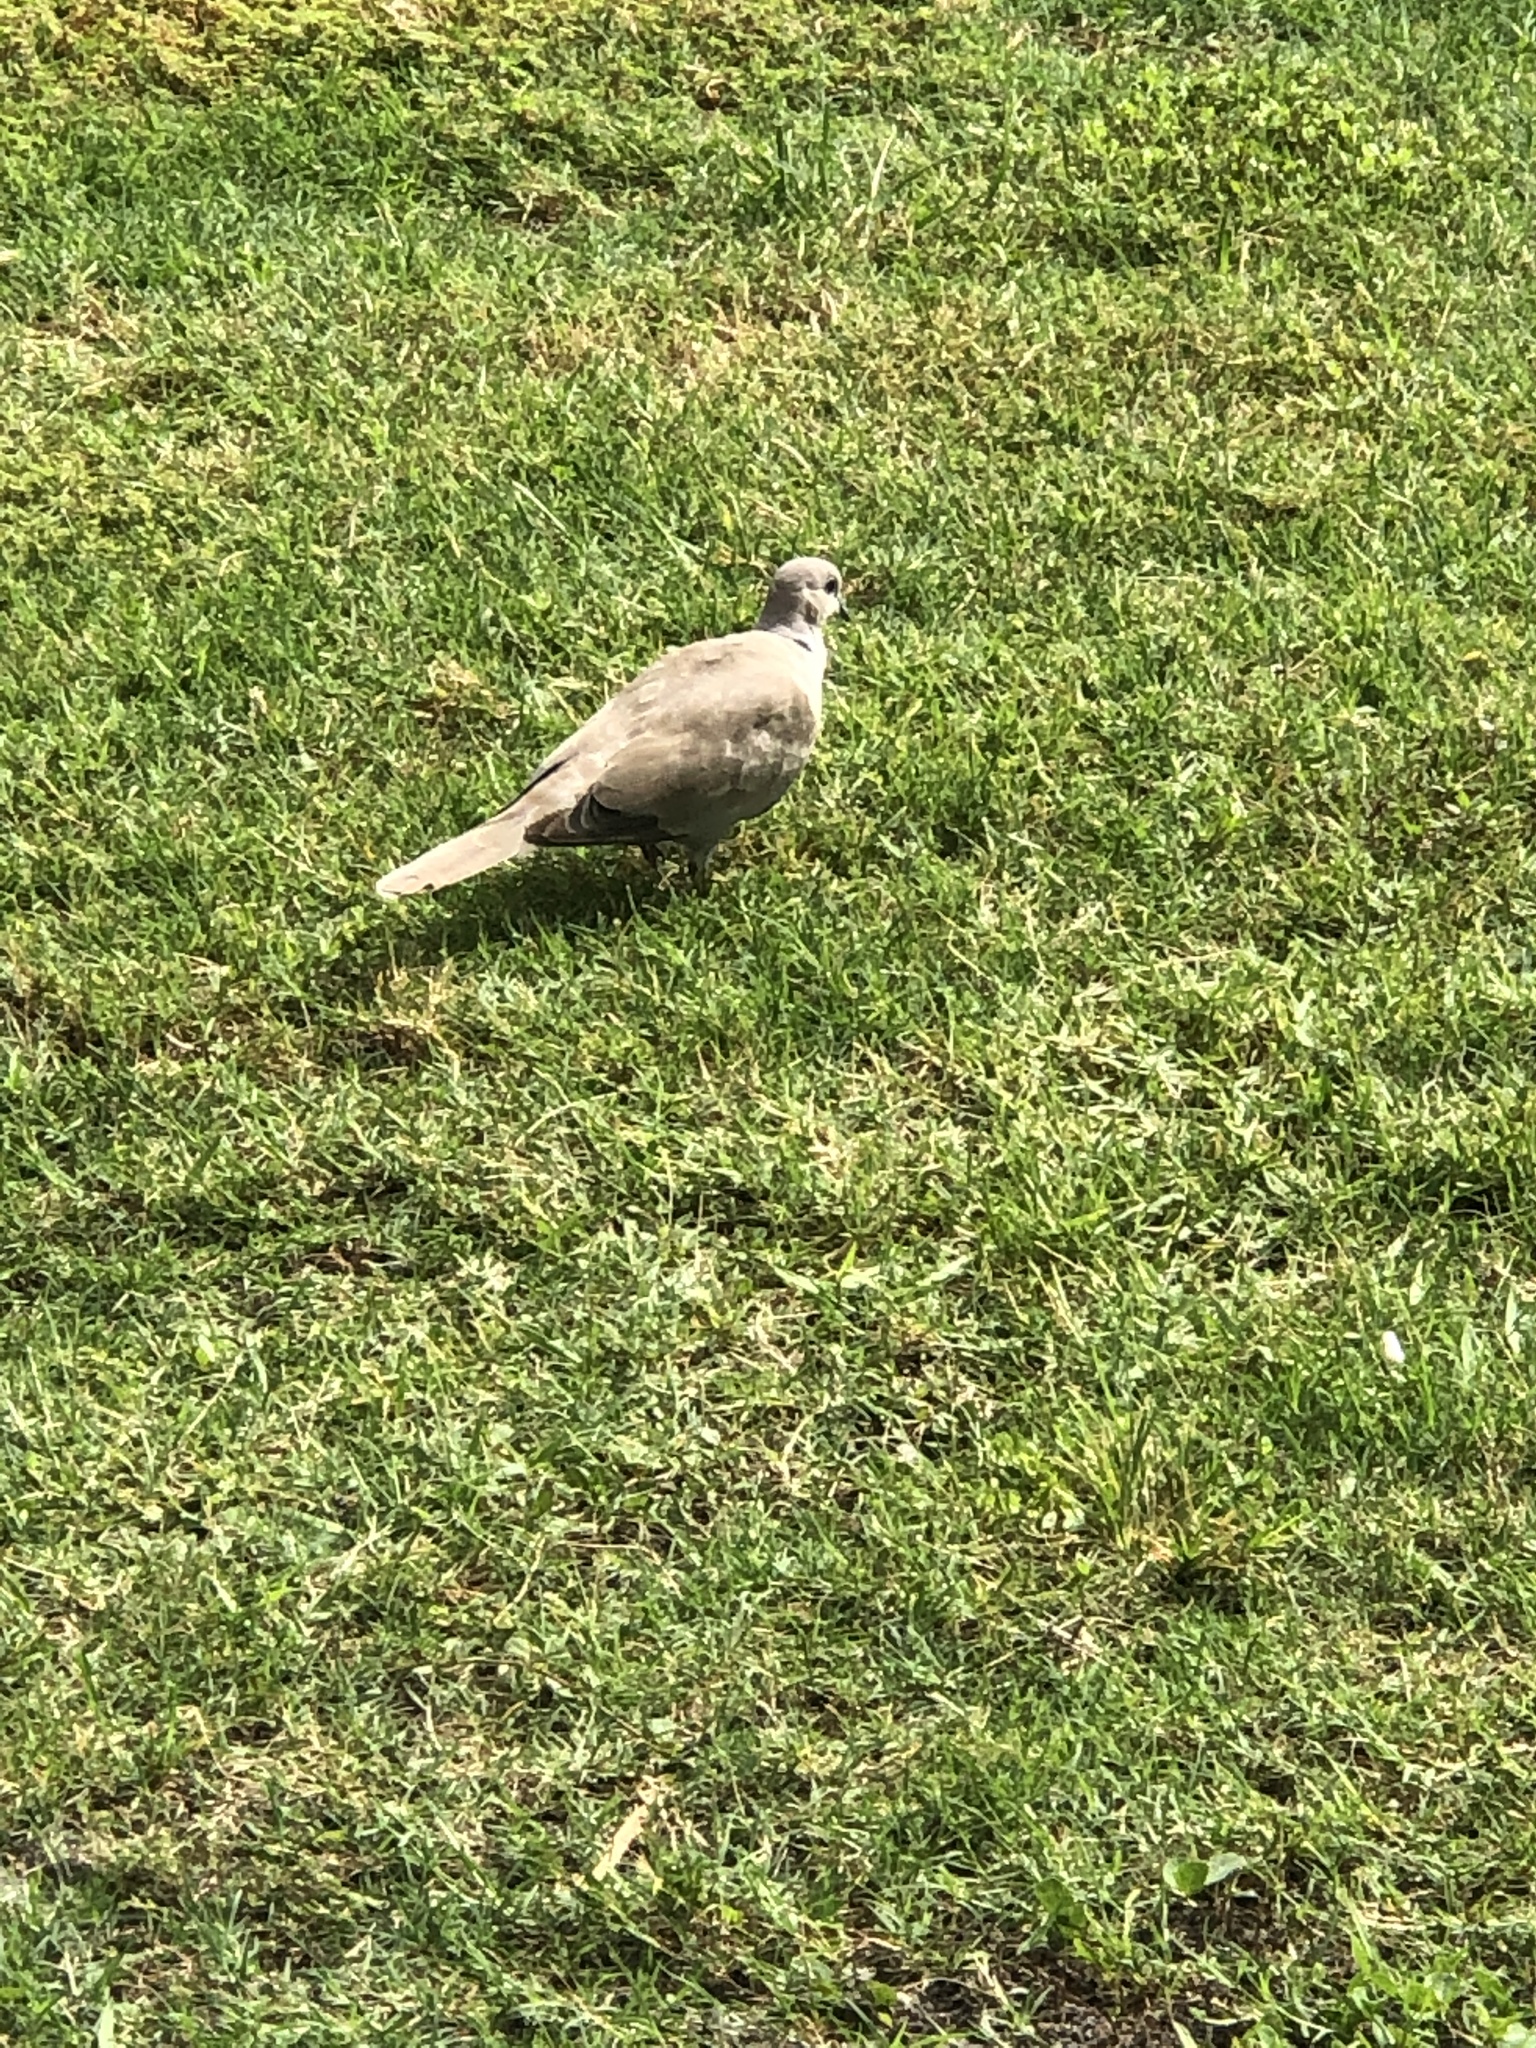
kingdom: Animalia
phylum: Chordata
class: Aves
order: Columbiformes
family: Columbidae
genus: Streptopelia
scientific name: Streptopelia decaocto
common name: Eurasian collared dove
